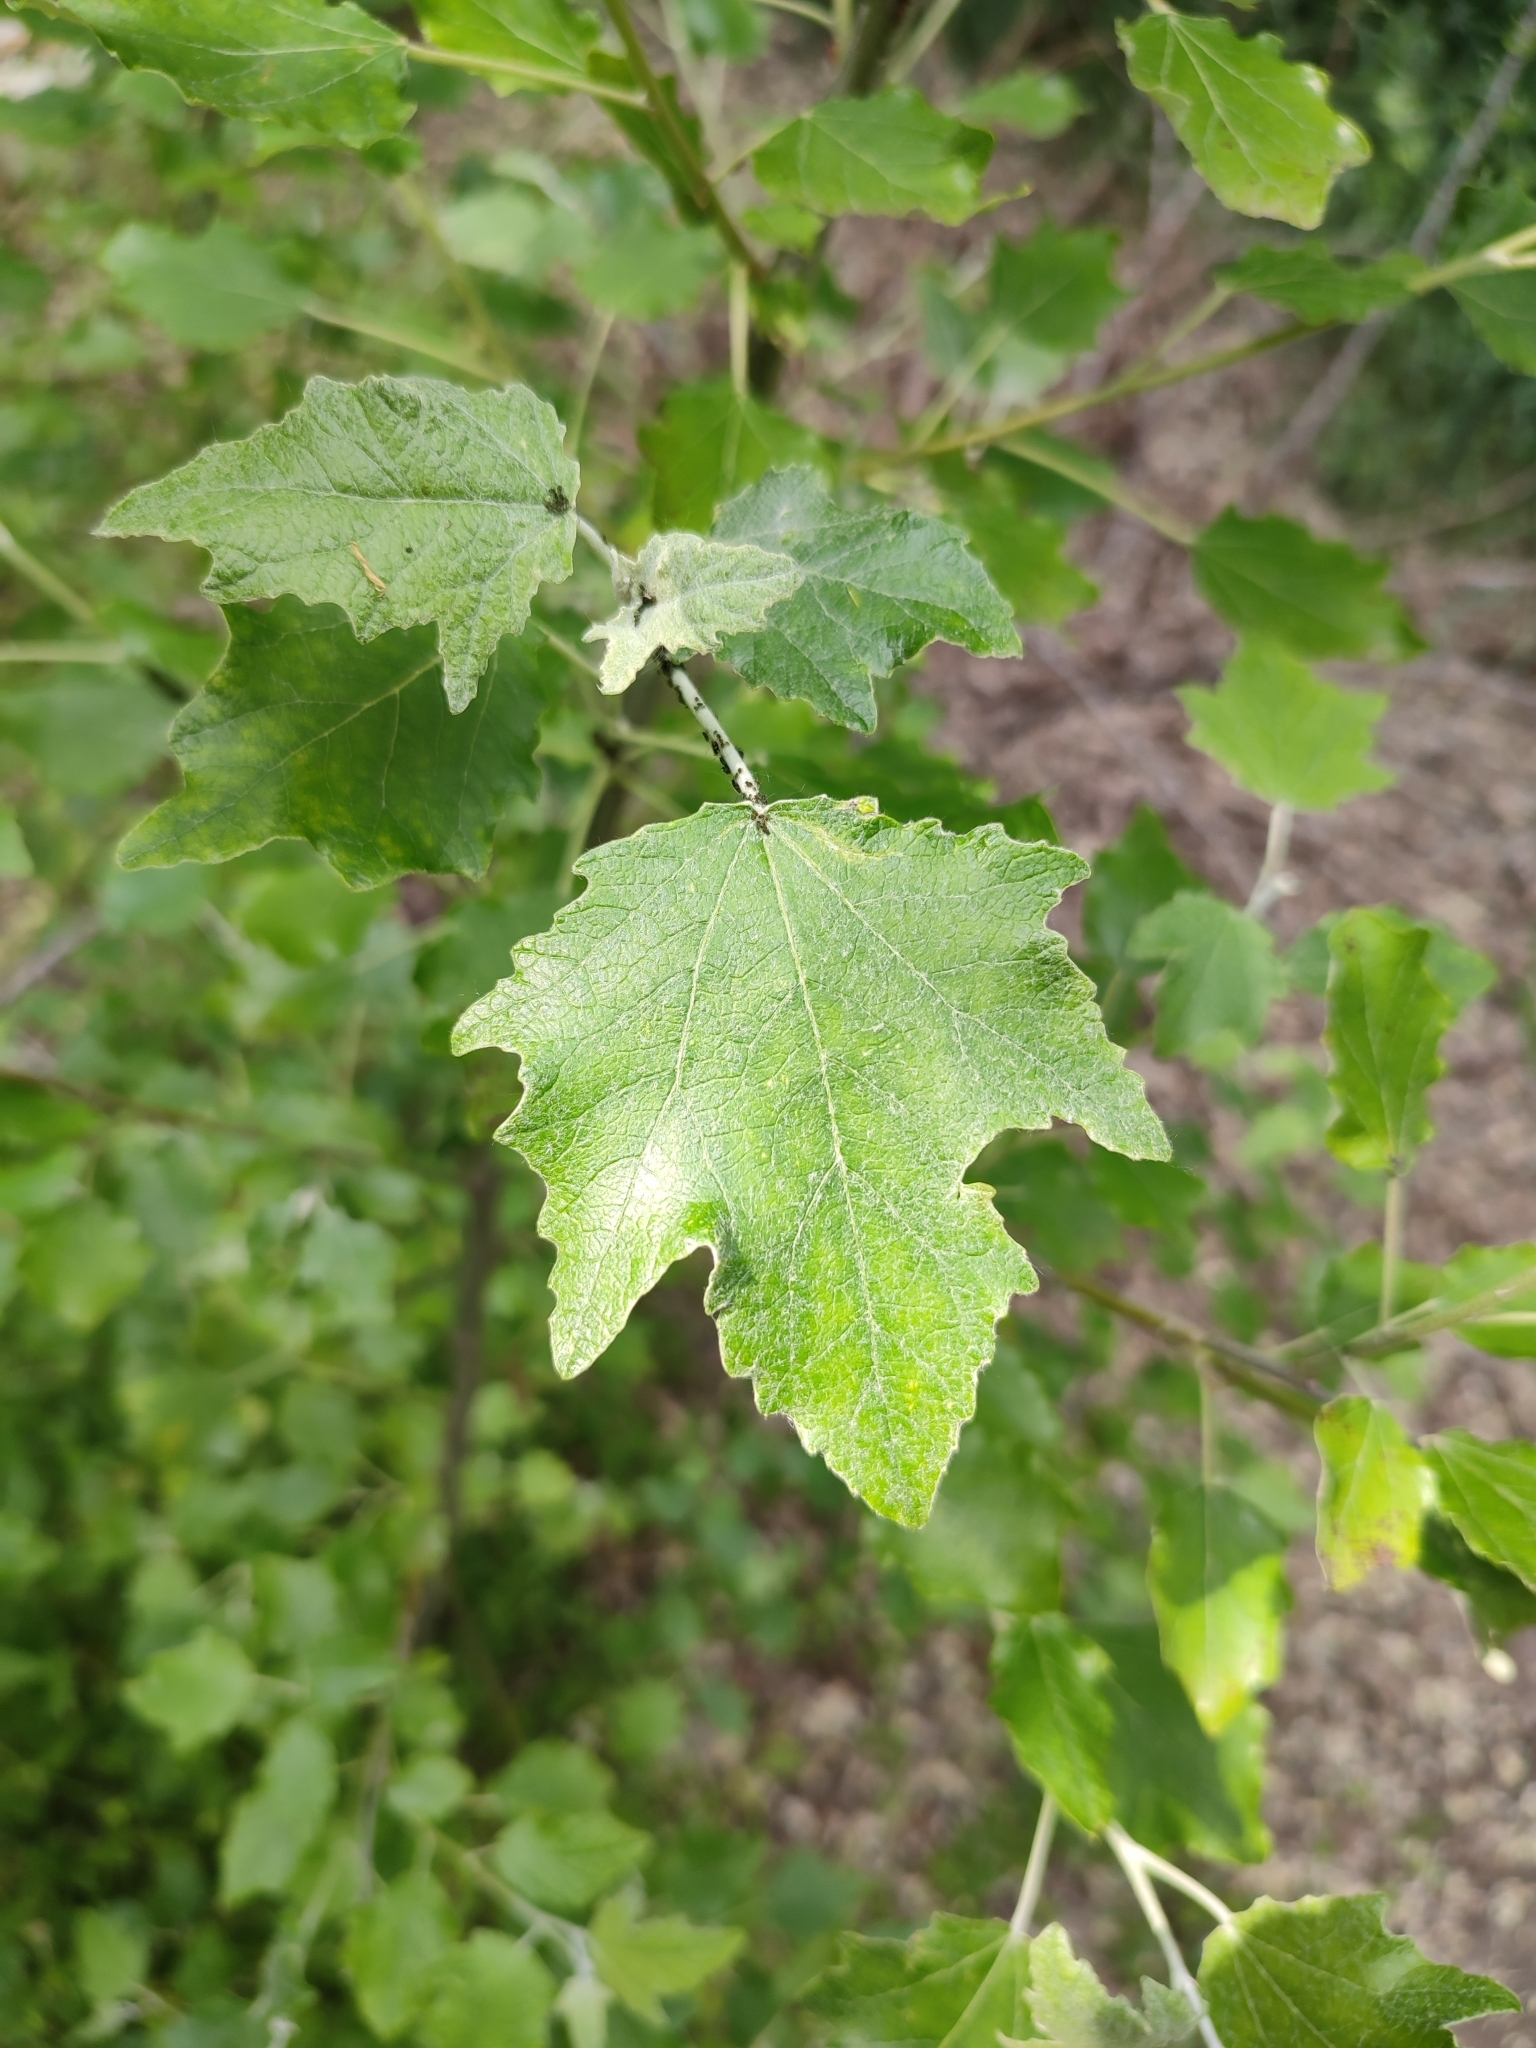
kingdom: Plantae
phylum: Tracheophyta
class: Magnoliopsida
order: Malpighiales
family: Salicaceae
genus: Populus
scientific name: Populus alba
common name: White poplar
